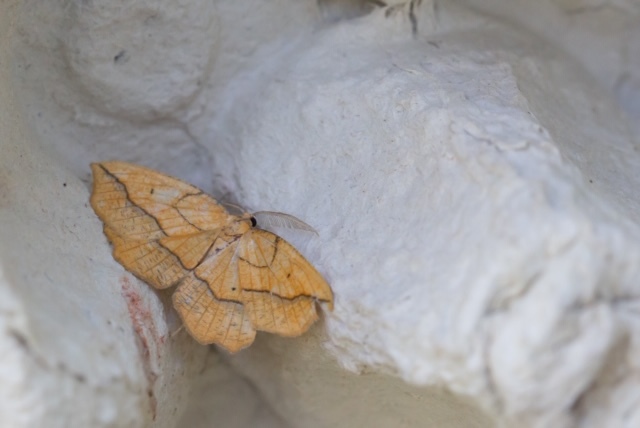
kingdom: Animalia
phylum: Arthropoda
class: Insecta
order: Lepidoptera
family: Geometridae
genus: Epione
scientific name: Epione repandaria
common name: Bordered beauty
